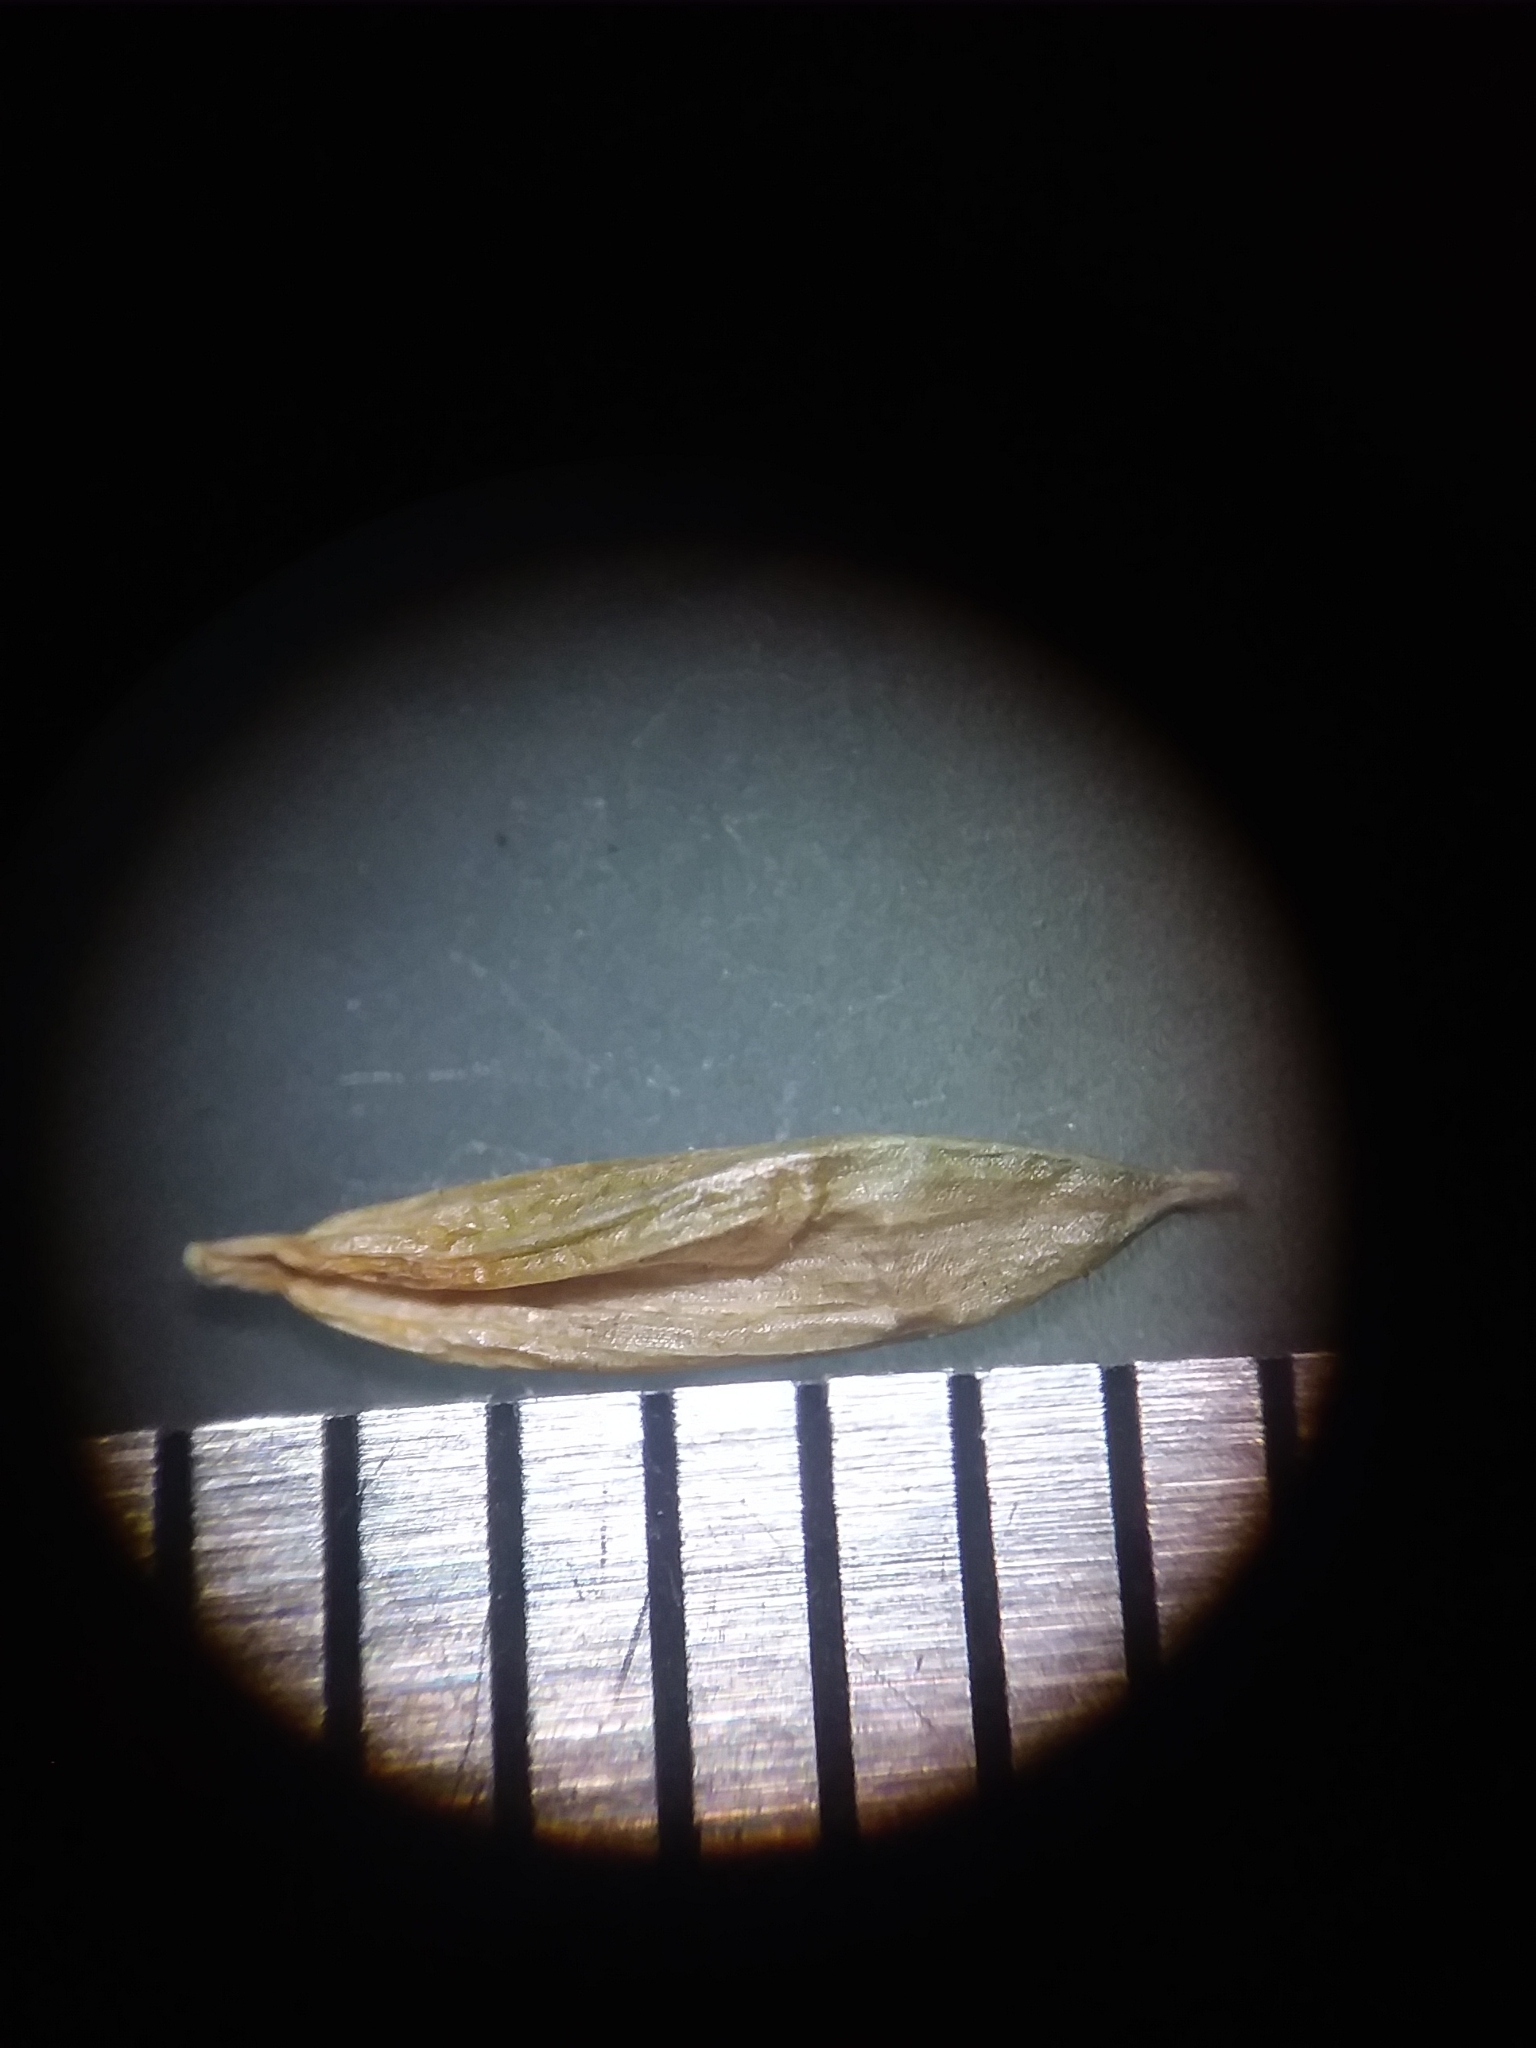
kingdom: Plantae
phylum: Tracheophyta
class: Liliopsida
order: Poales
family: Cyperaceae
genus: Carex
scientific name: Carex venusta
